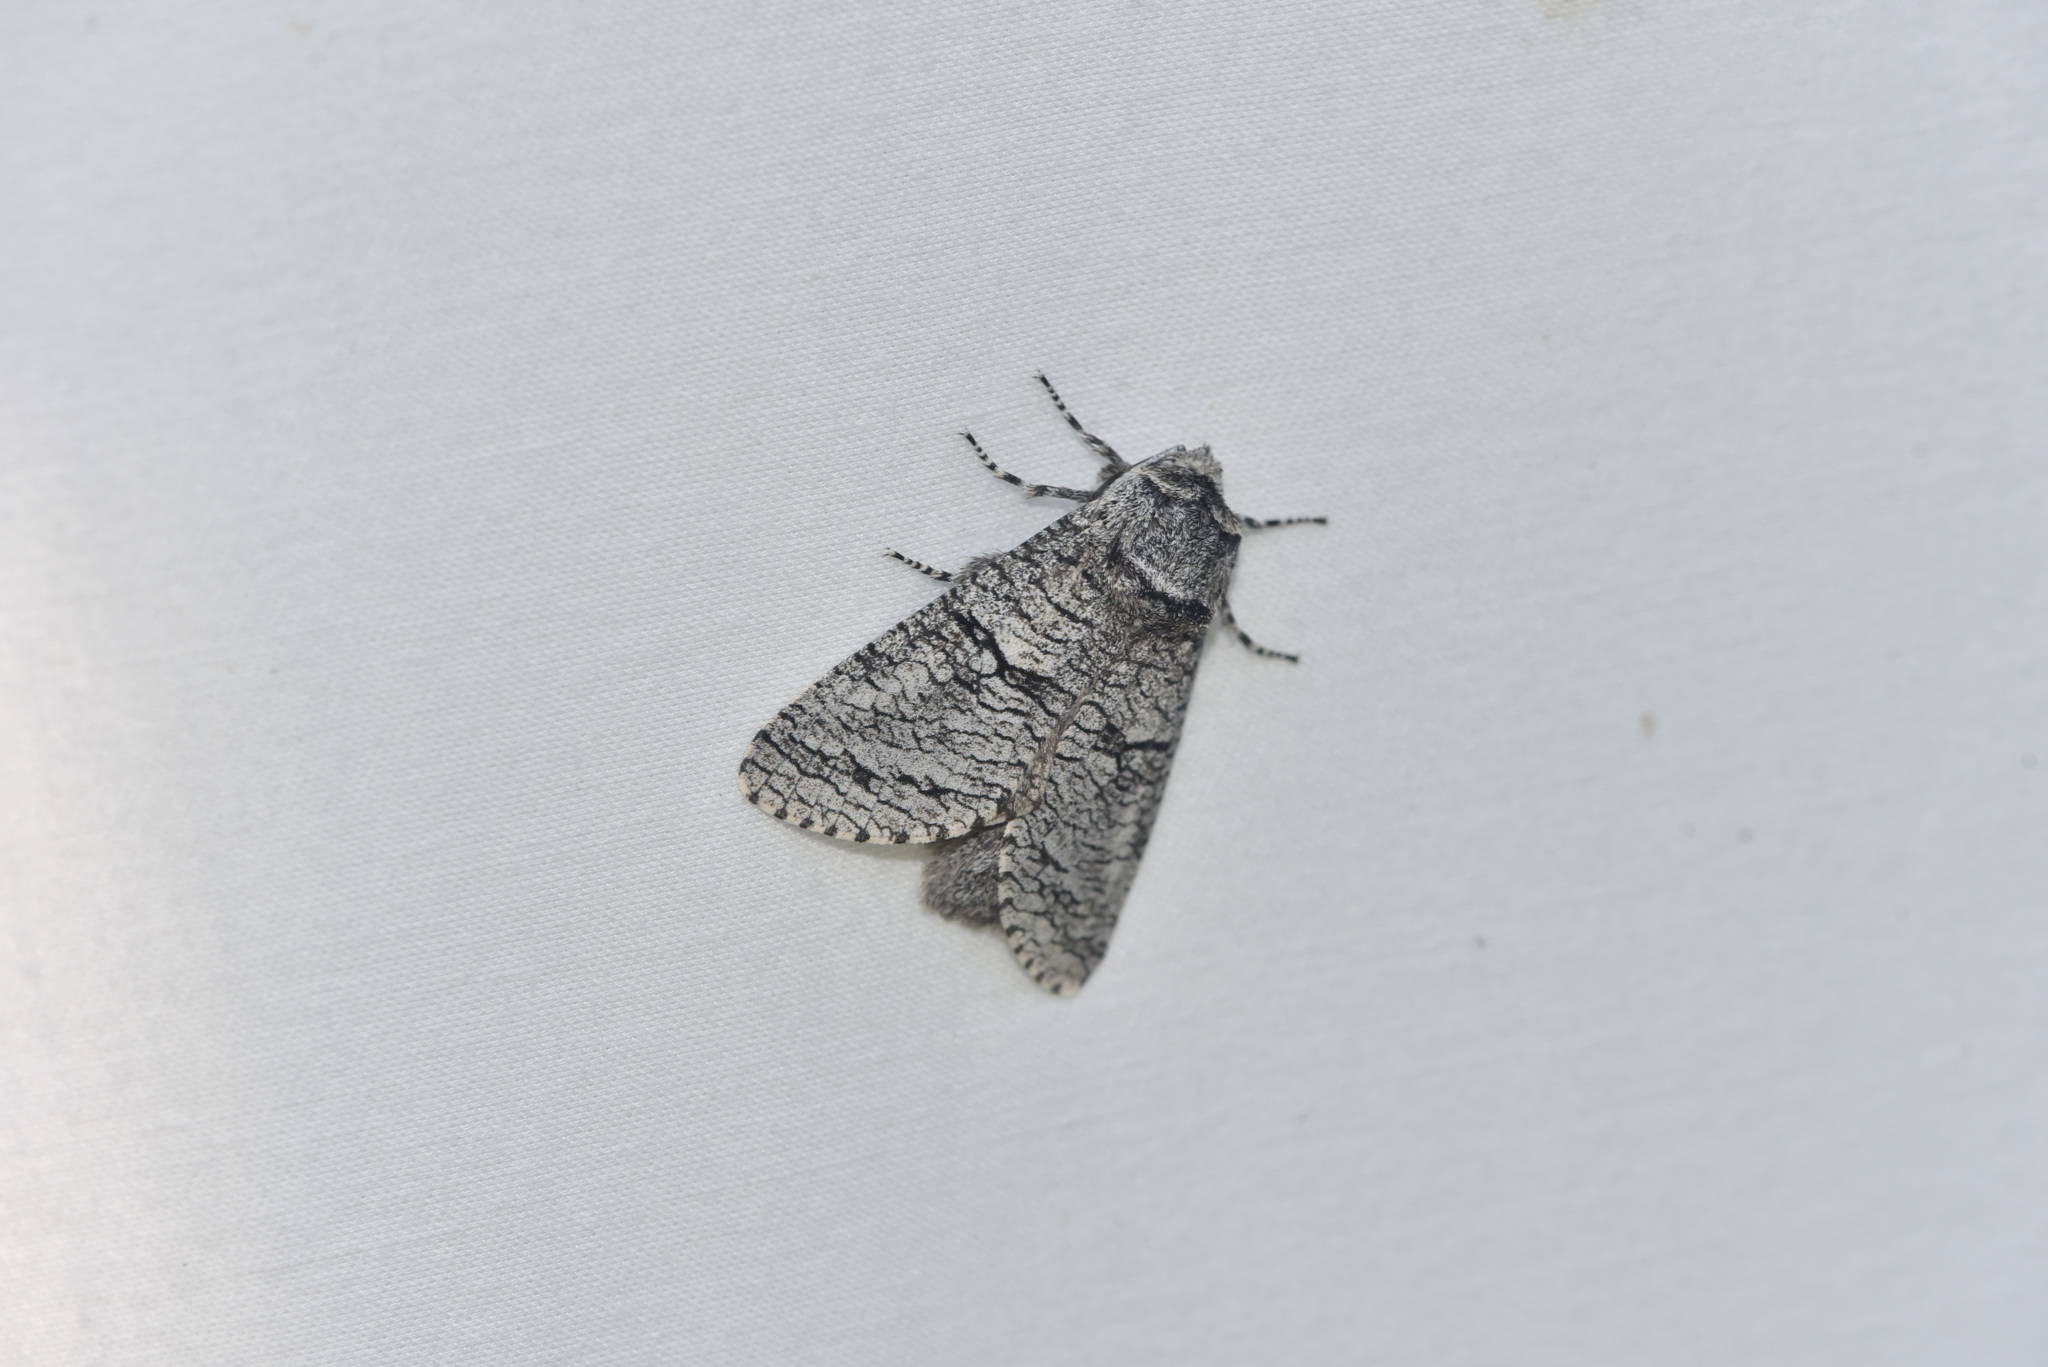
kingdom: Animalia
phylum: Arthropoda
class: Insecta
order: Lepidoptera
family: Cossidae
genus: Acossus
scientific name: Acossus populi
